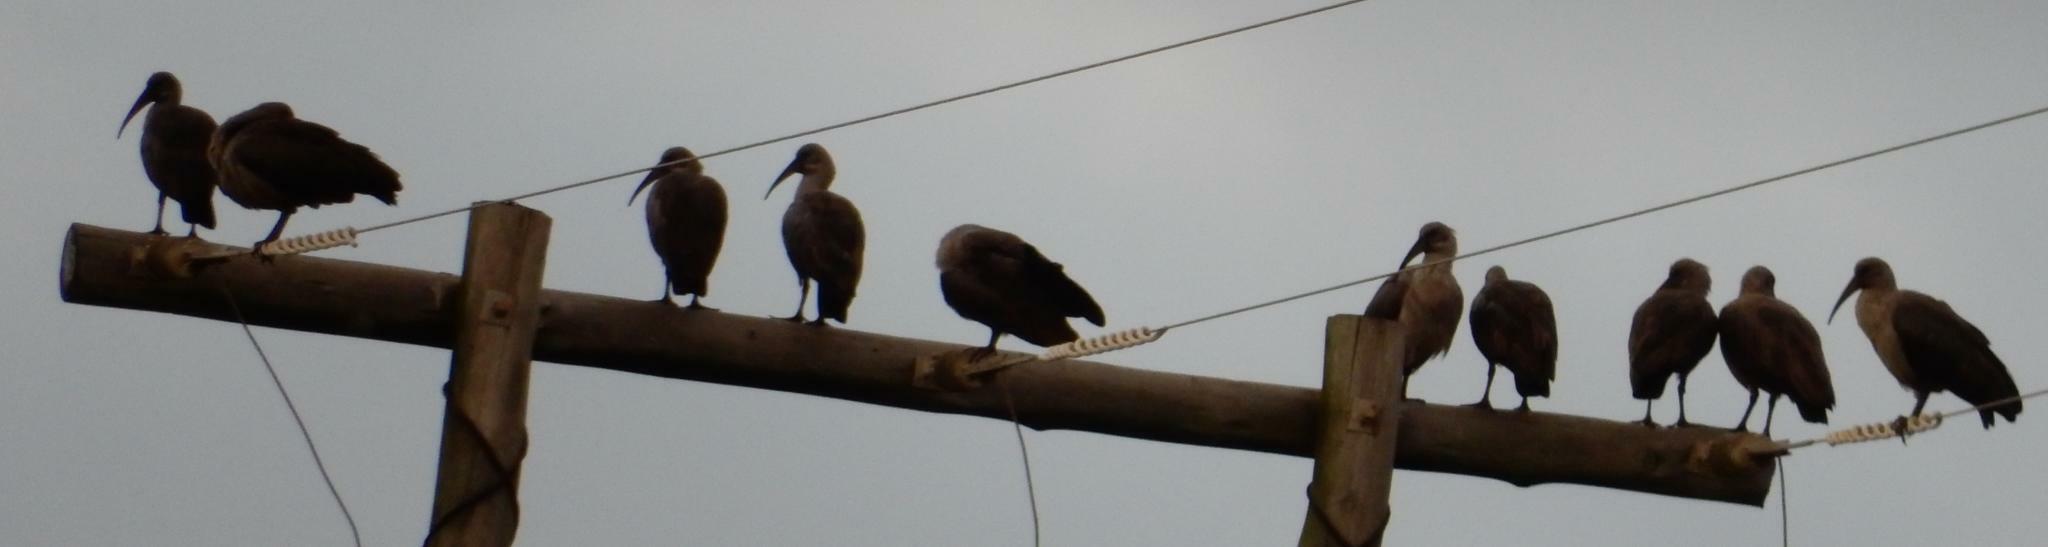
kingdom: Animalia
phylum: Chordata
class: Aves
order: Pelecaniformes
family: Threskiornithidae
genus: Bostrychia
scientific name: Bostrychia hagedash
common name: Hadada ibis
